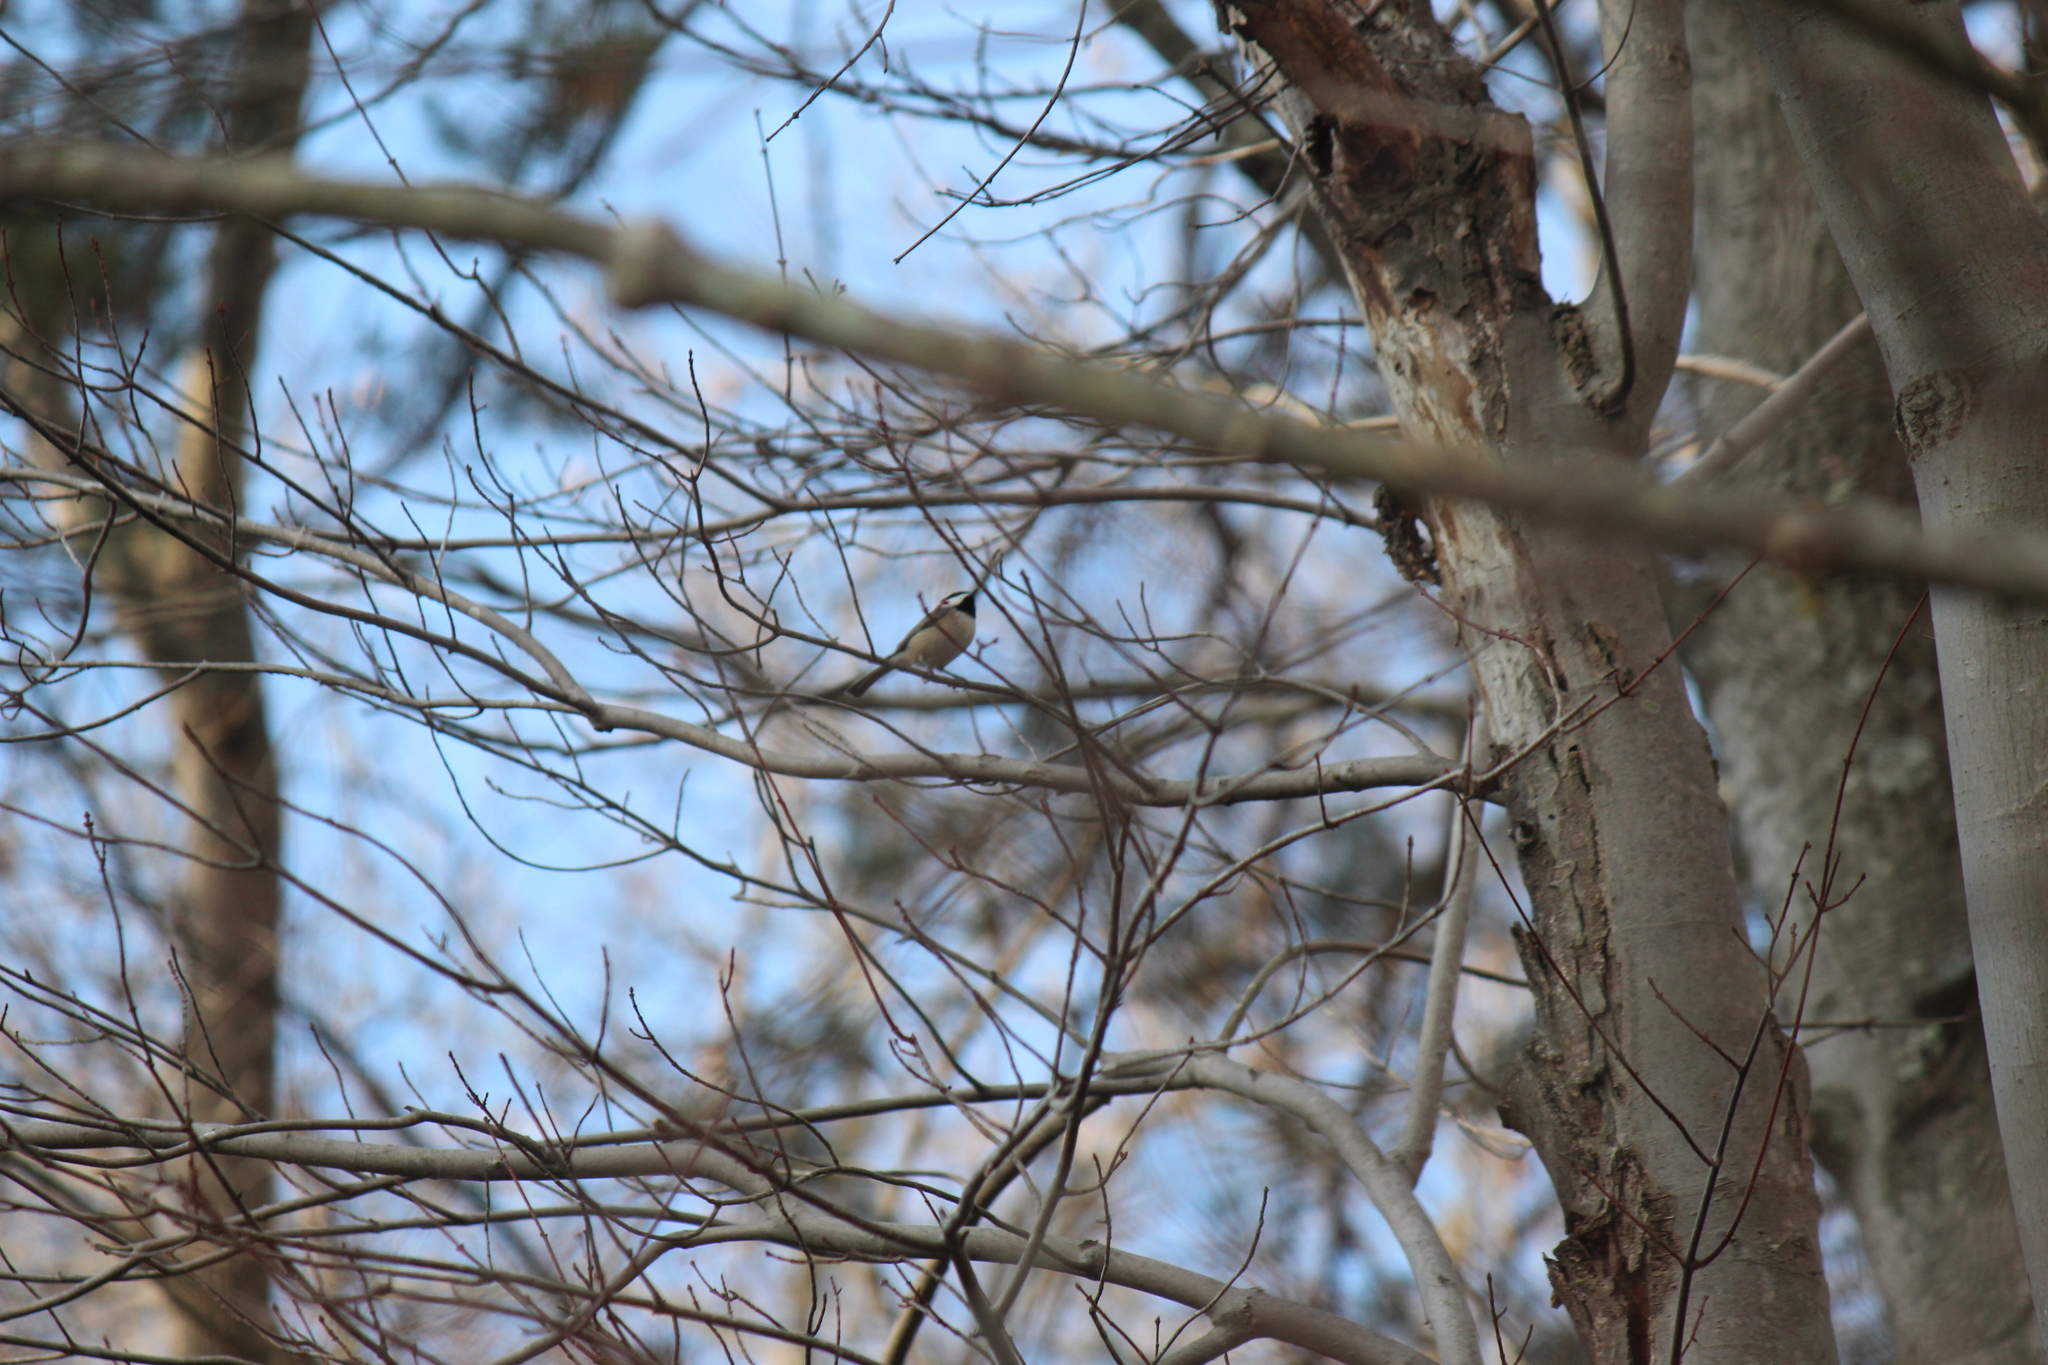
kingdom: Animalia
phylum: Chordata
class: Aves
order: Passeriformes
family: Paridae
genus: Poecile
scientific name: Poecile carolinensis
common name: Carolina chickadee
